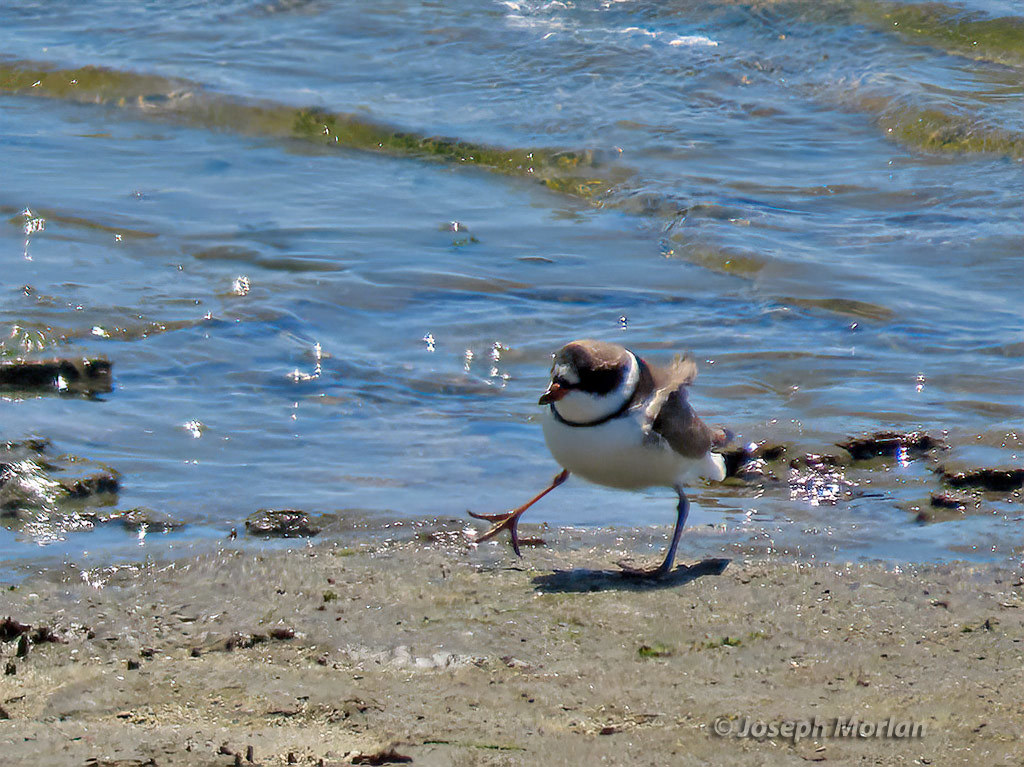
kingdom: Animalia
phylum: Chordata
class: Aves
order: Charadriiformes
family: Charadriidae
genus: Charadrius
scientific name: Charadrius semipalmatus
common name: Semipalmated plover
